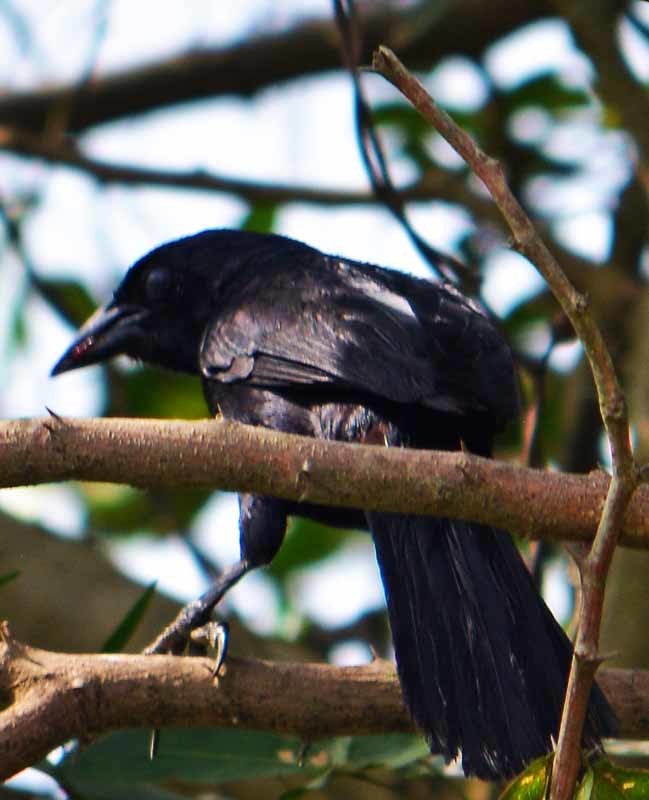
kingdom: Animalia
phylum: Chordata
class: Aves
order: Passeriformes
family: Icteridae
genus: Dives
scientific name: Dives dives
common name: Melodious blackbird
